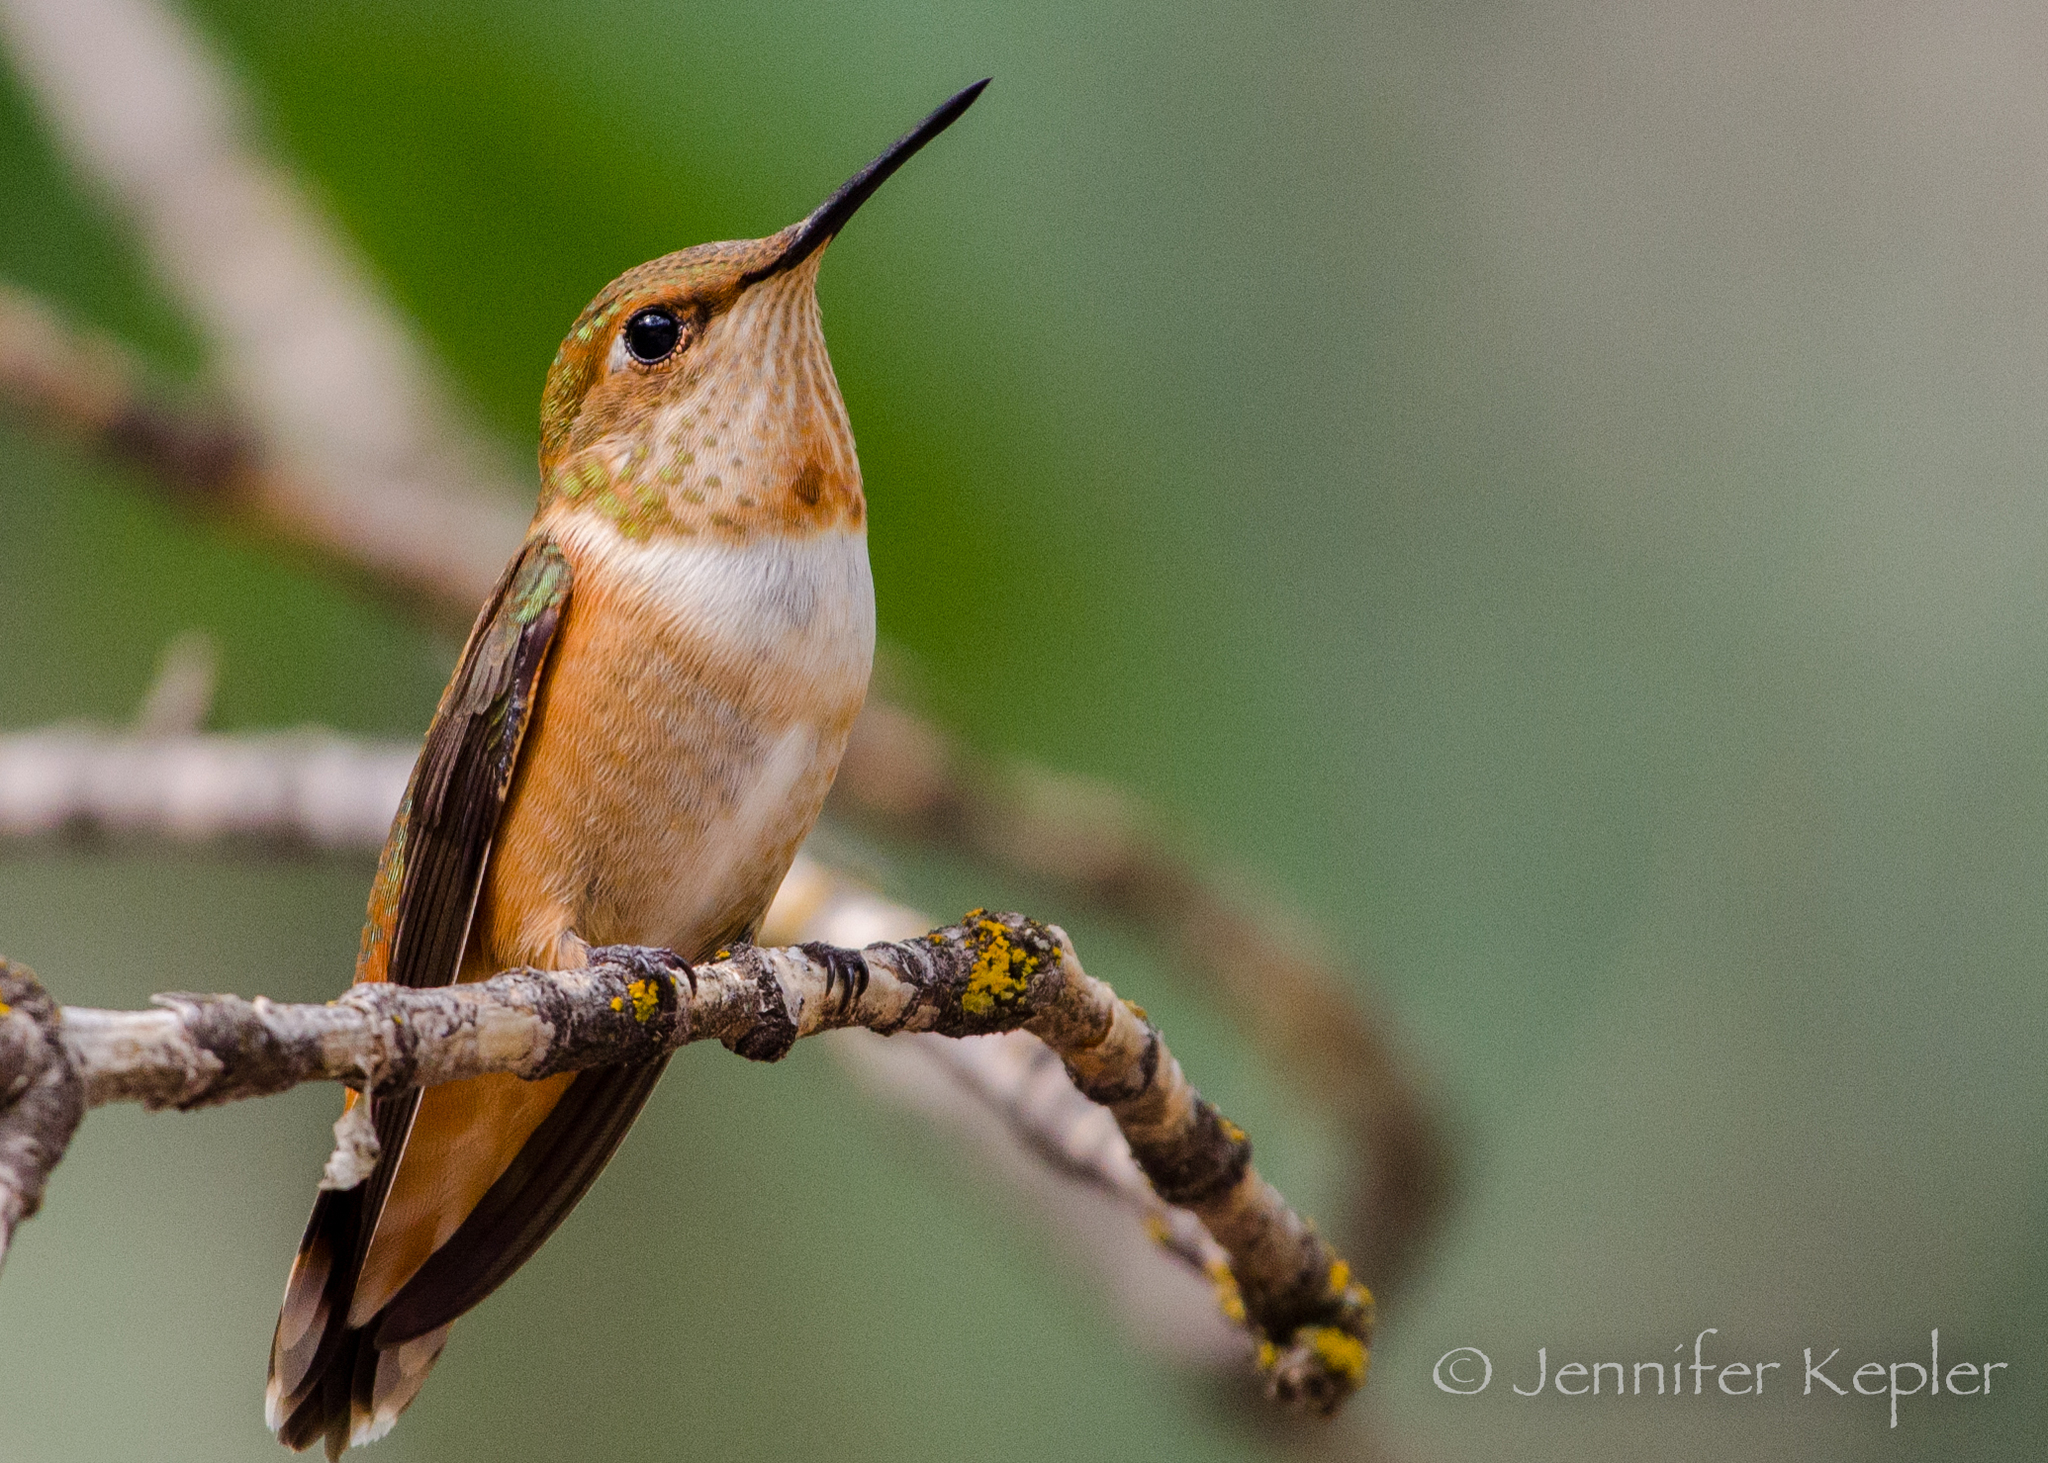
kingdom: Animalia
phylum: Chordata
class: Aves
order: Apodiformes
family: Trochilidae
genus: Selasphorus
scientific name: Selasphorus rufus
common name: Rufous hummingbird
